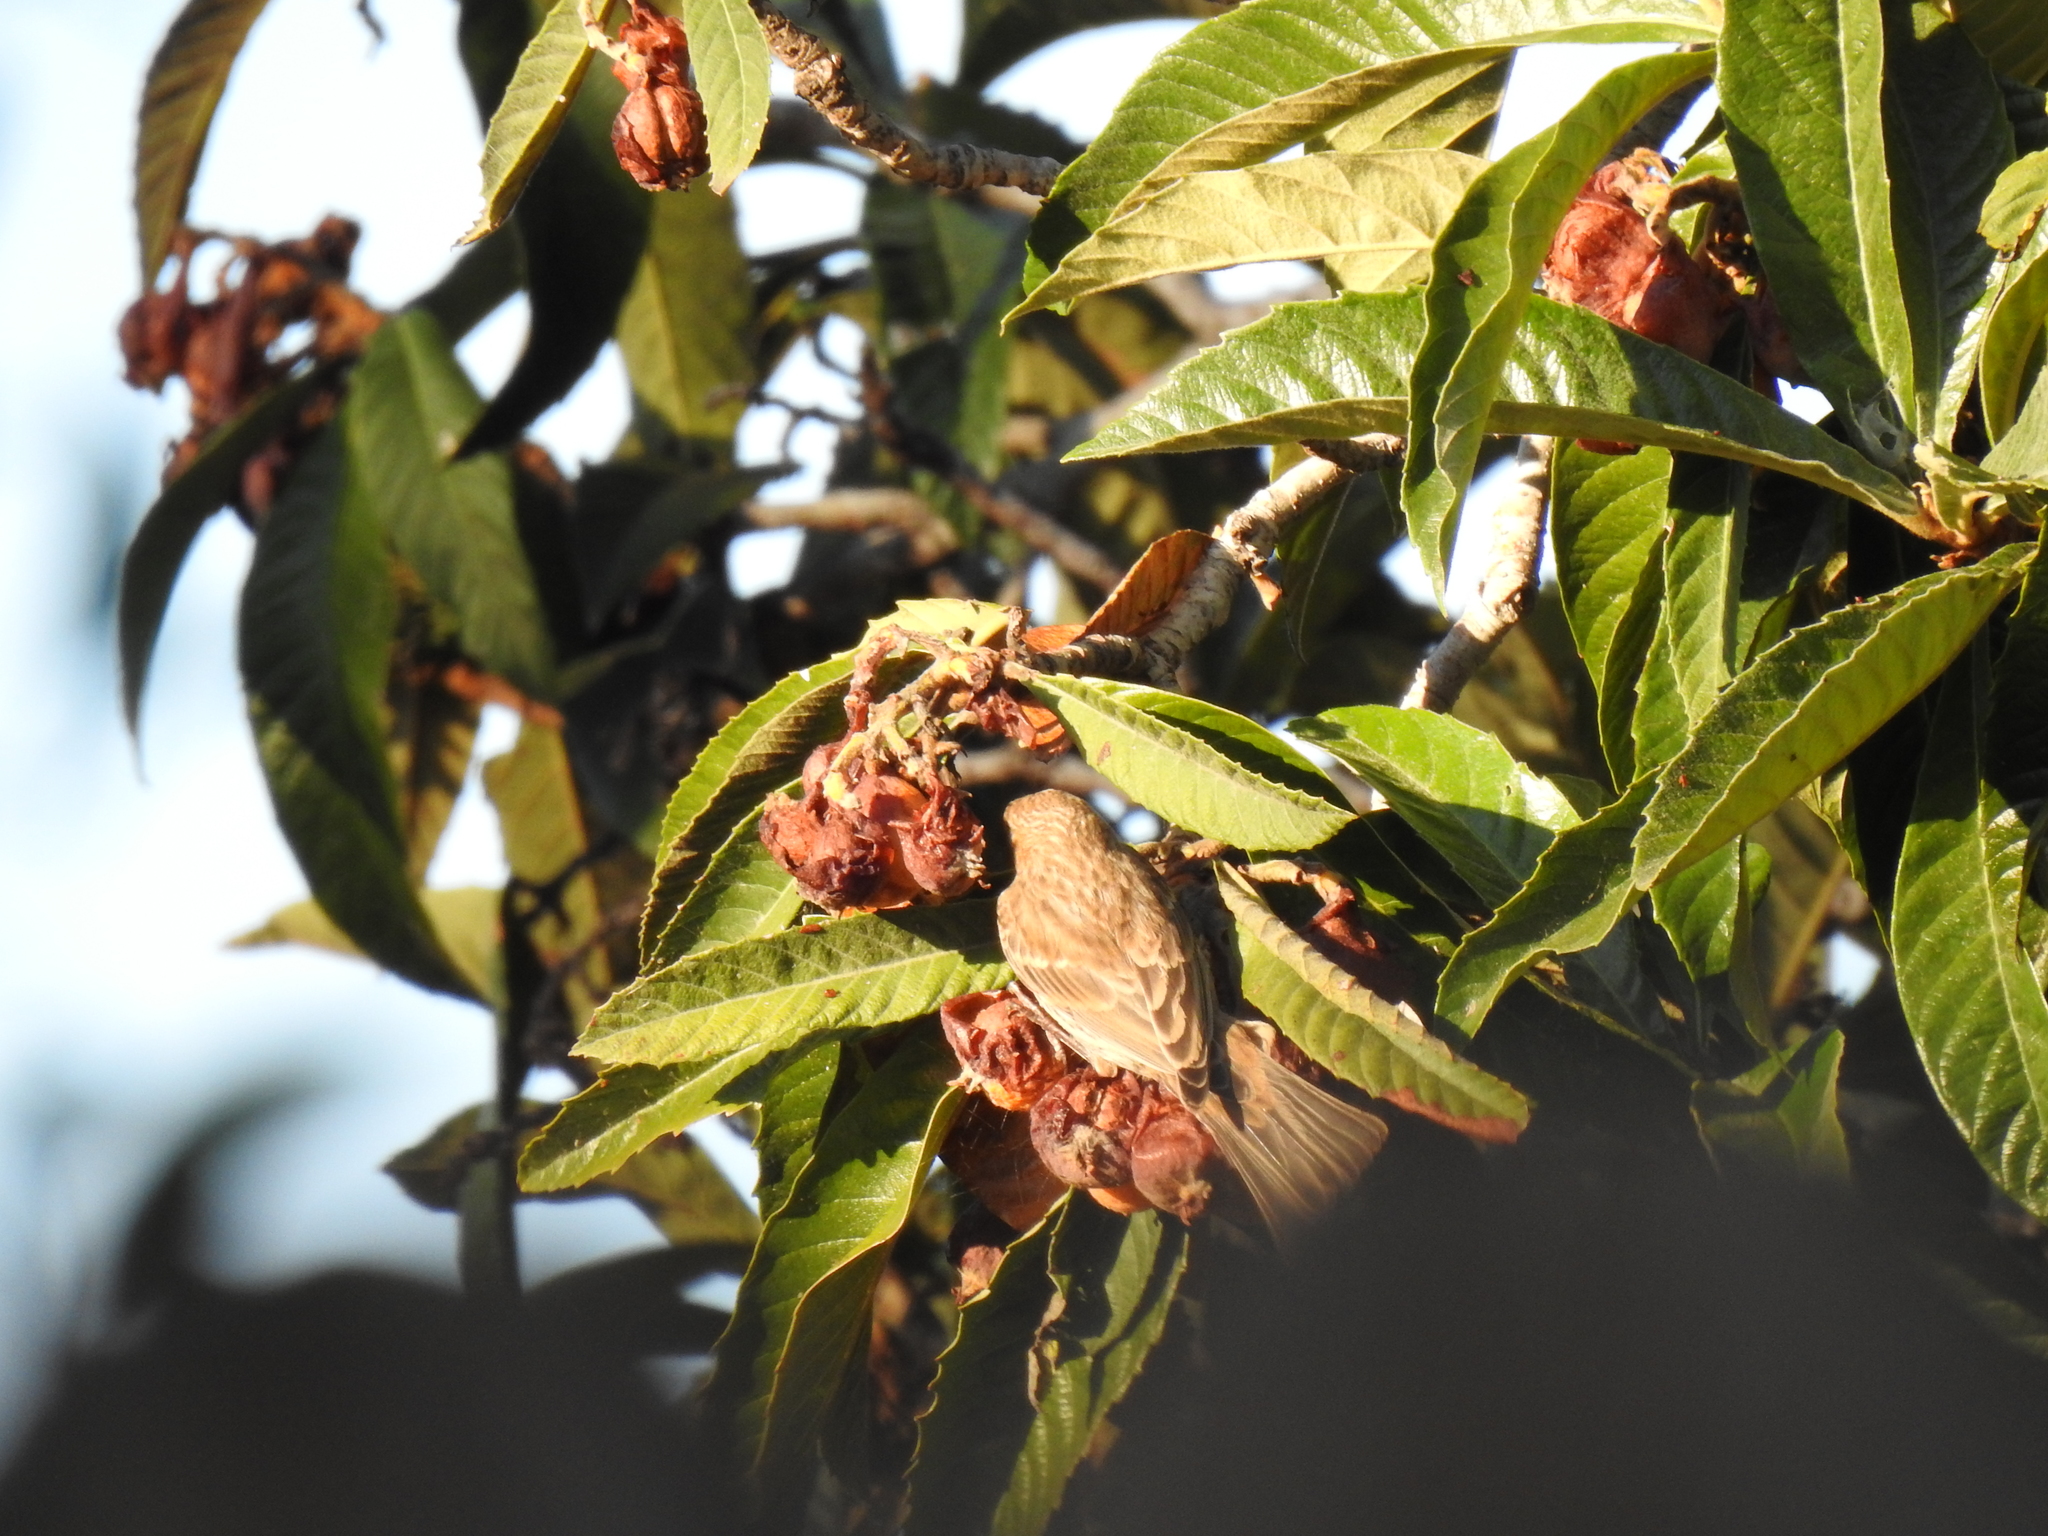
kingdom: Animalia
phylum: Chordata
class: Aves
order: Passeriformes
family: Fringillidae
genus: Haemorhous
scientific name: Haemorhous mexicanus
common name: House finch
